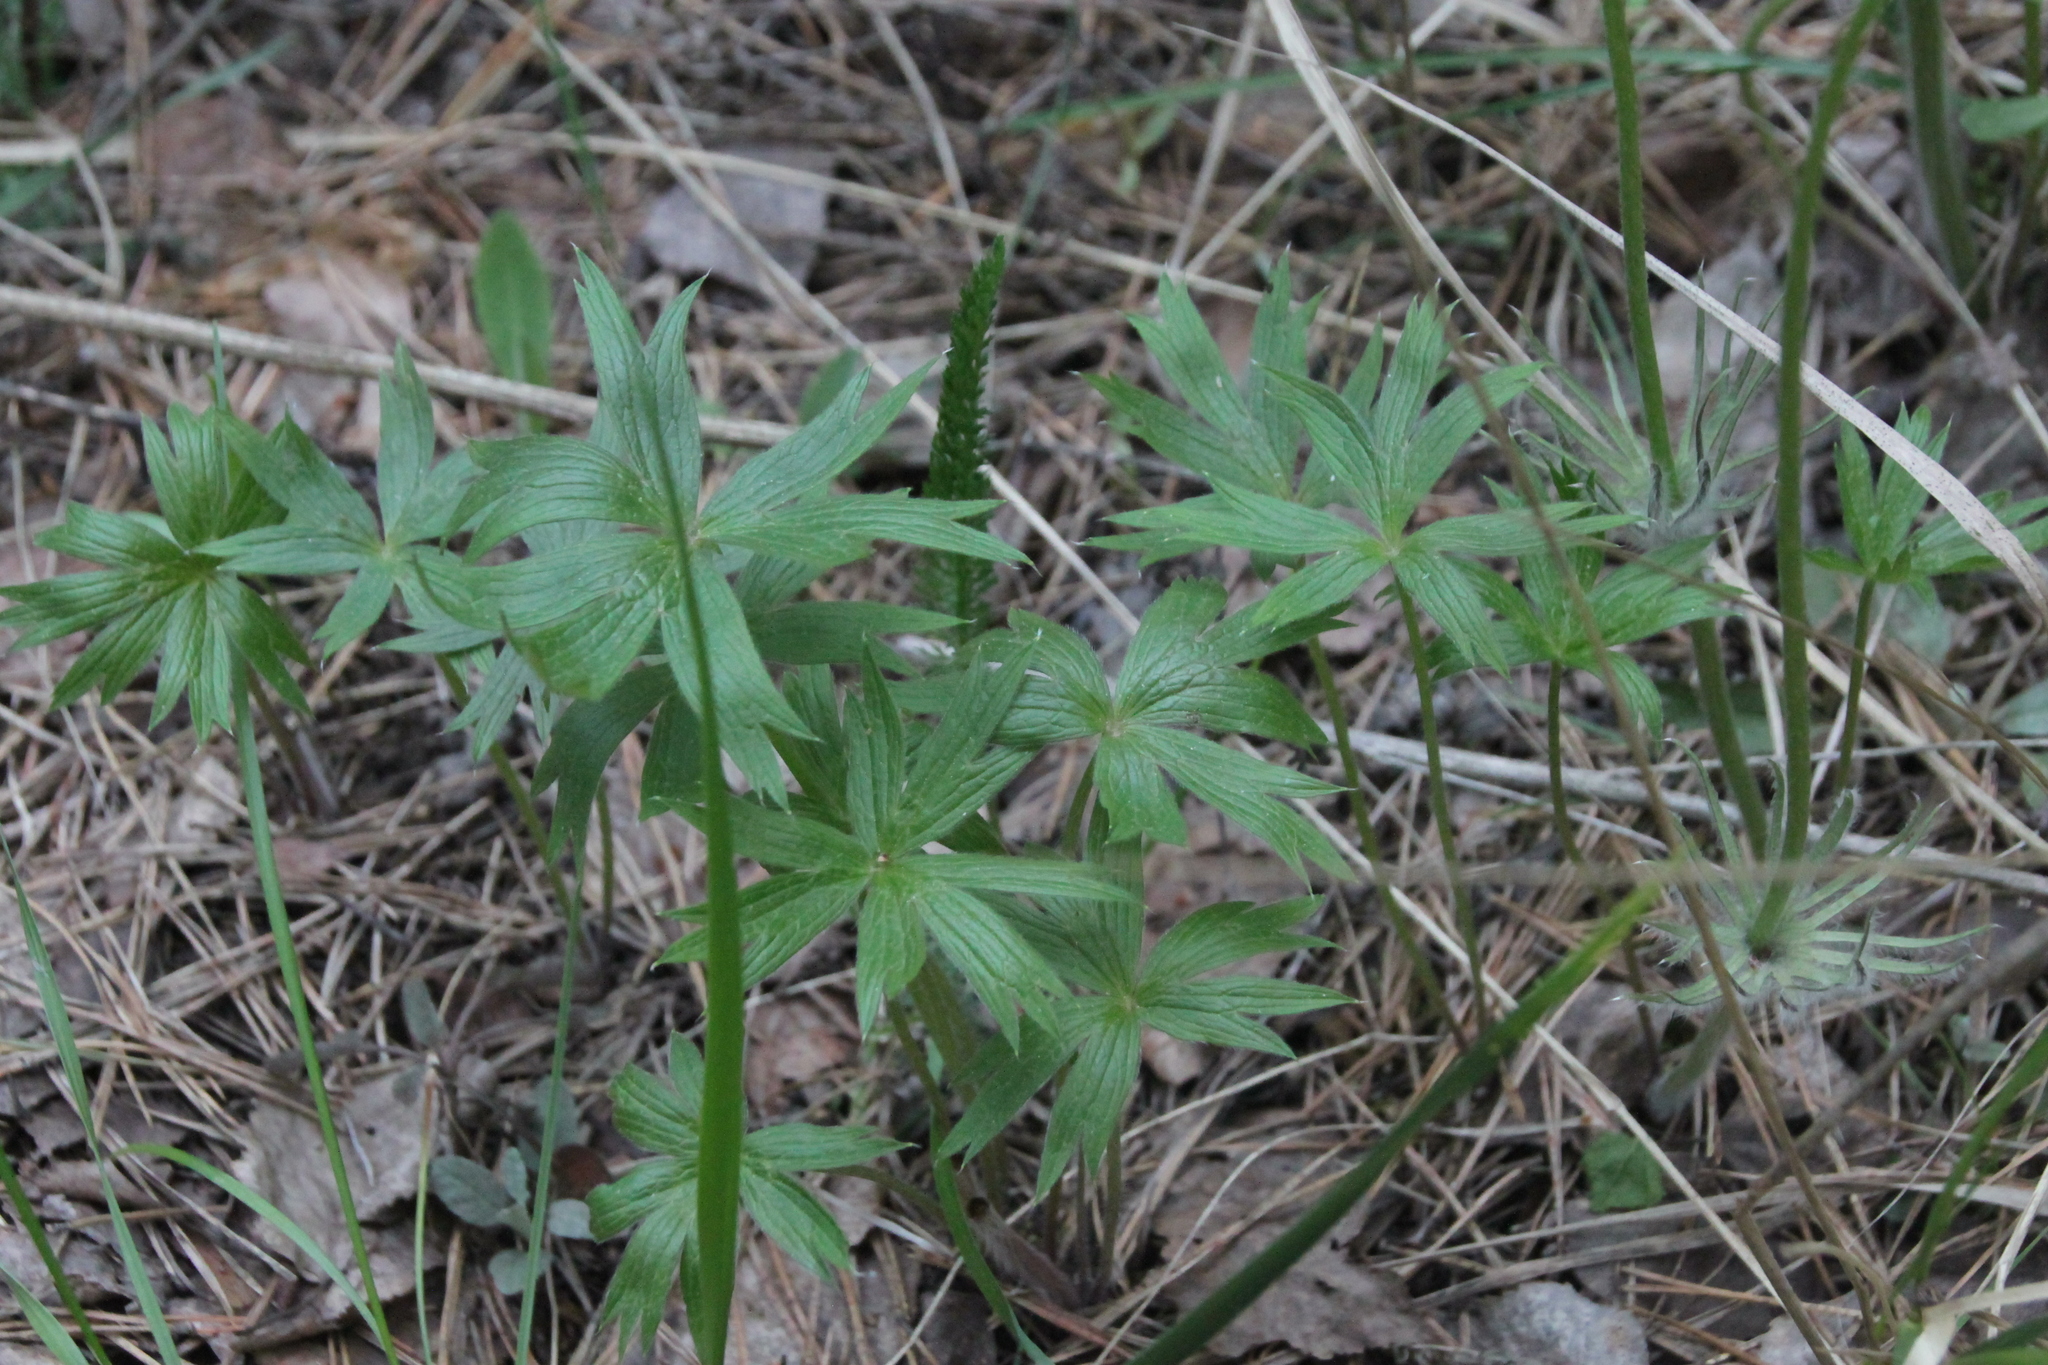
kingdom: Plantae
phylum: Tracheophyta
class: Magnoliopsida
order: Ranunculales
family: Ranunculaceae
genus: Pulsatilla
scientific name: Pulsatilla patens
